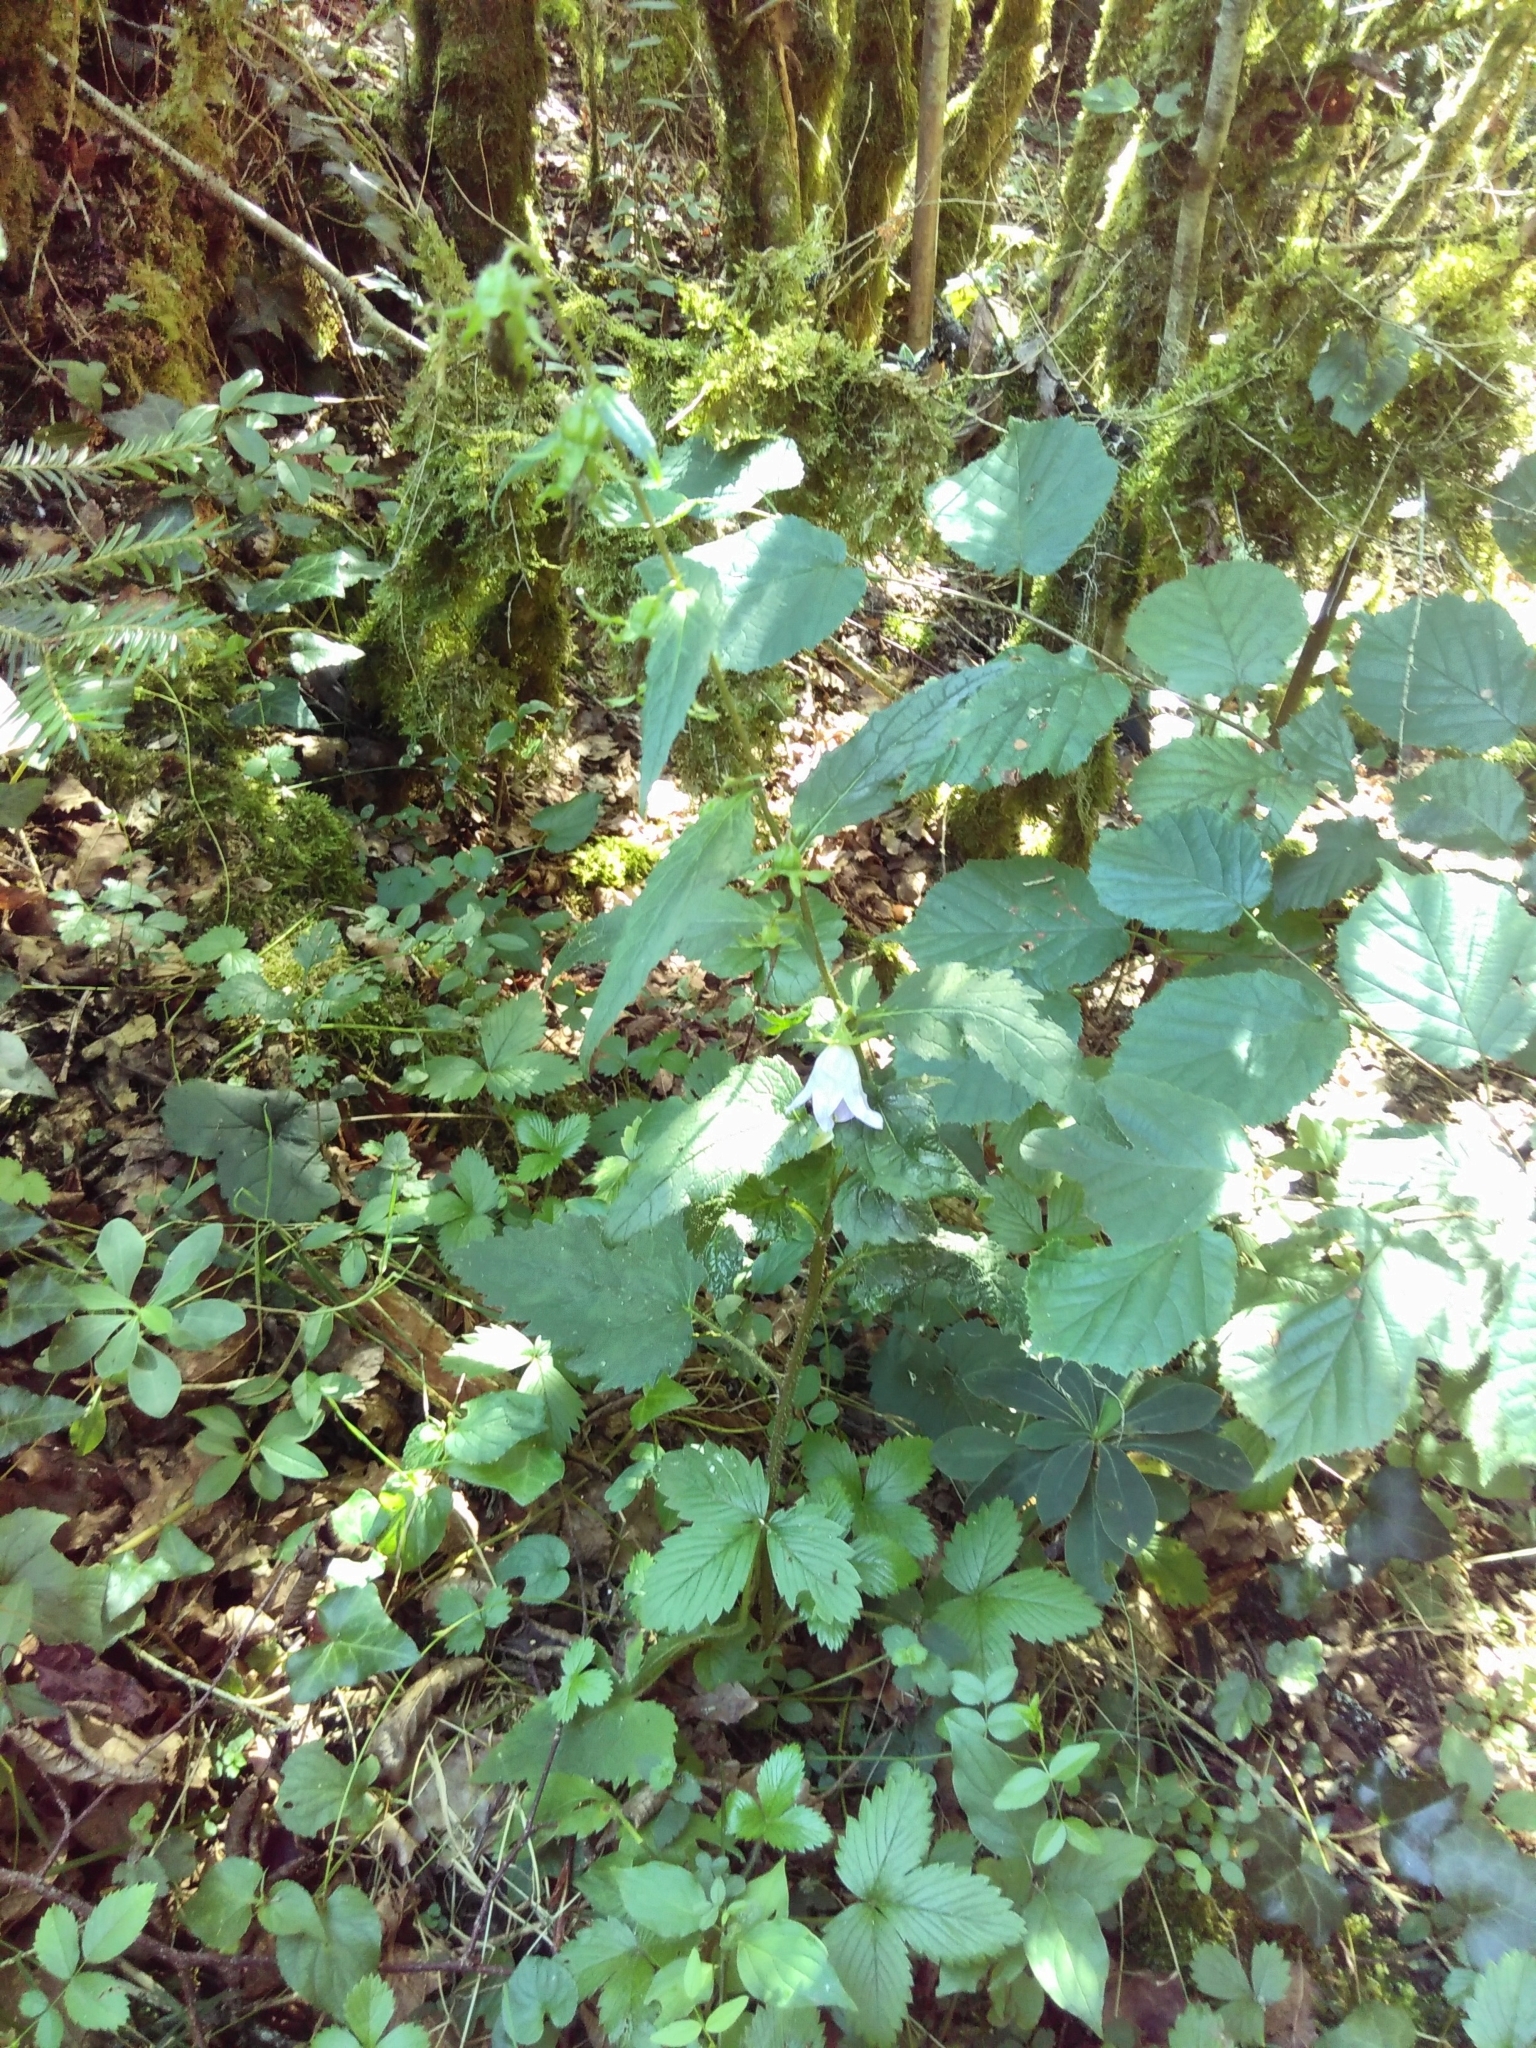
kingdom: Plantae
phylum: Tracheophyta
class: Magnoliopsida
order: Asterales
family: Campanulaceae
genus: Campanula
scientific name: Campanula trachelium
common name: Nettle-leaved bellflower
